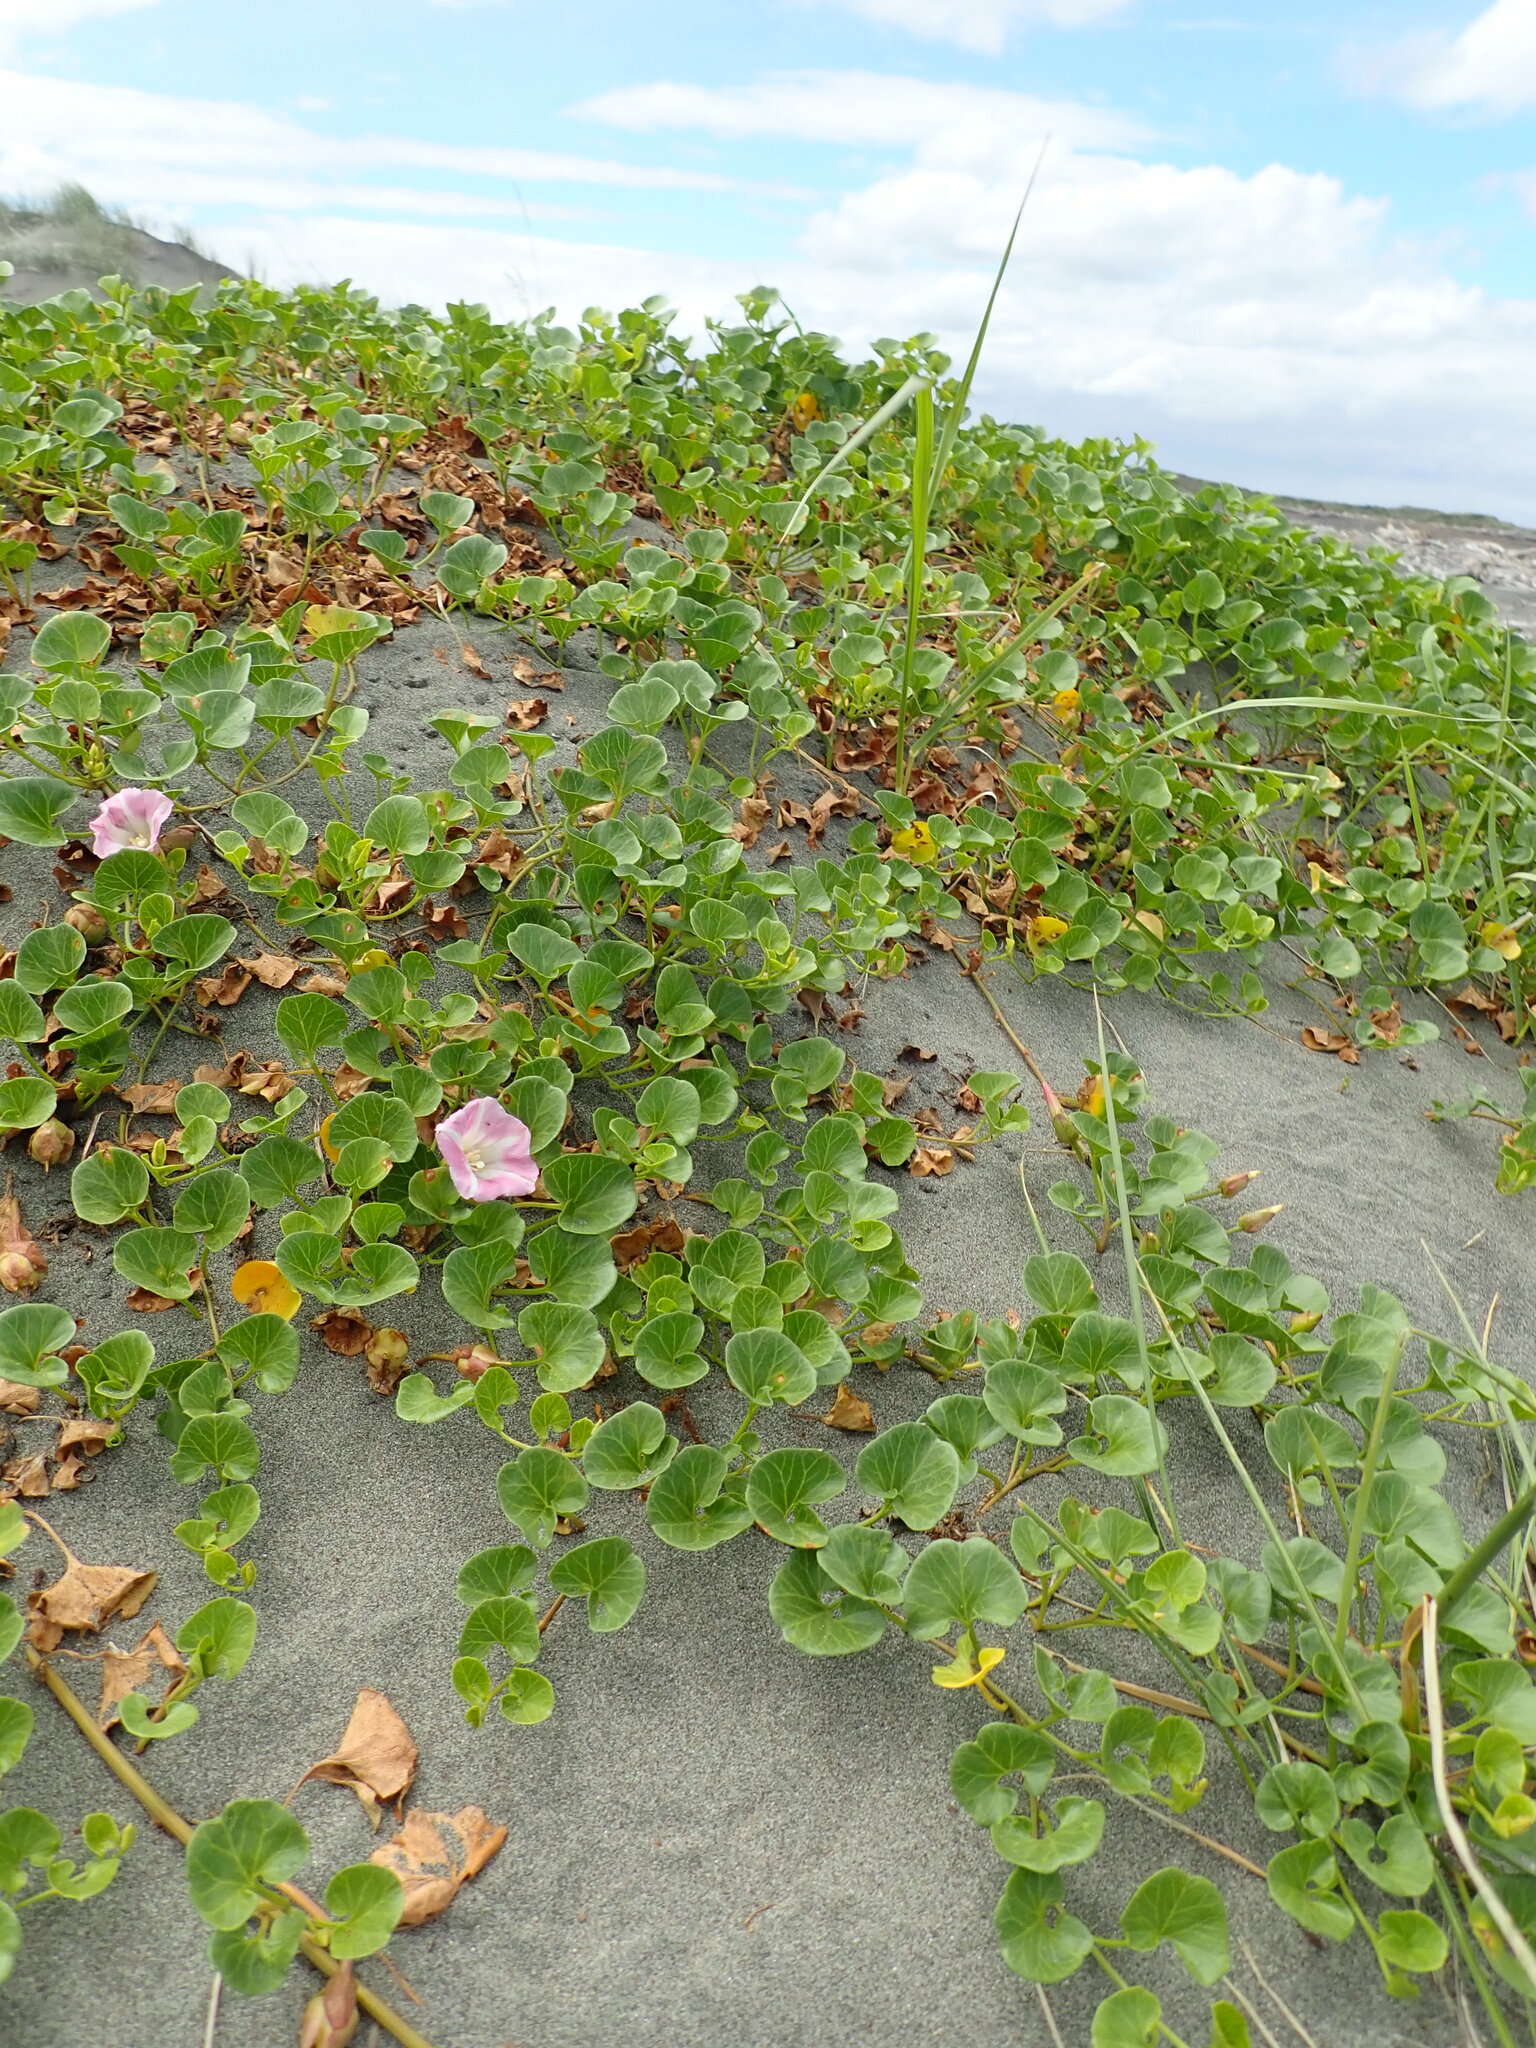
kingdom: Plantae
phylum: Tracheophyta
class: Magnoliopsida
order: Solanales
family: Convolvulaceae
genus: Calystegia
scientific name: Calystegia soldanella
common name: Sea bindweed
